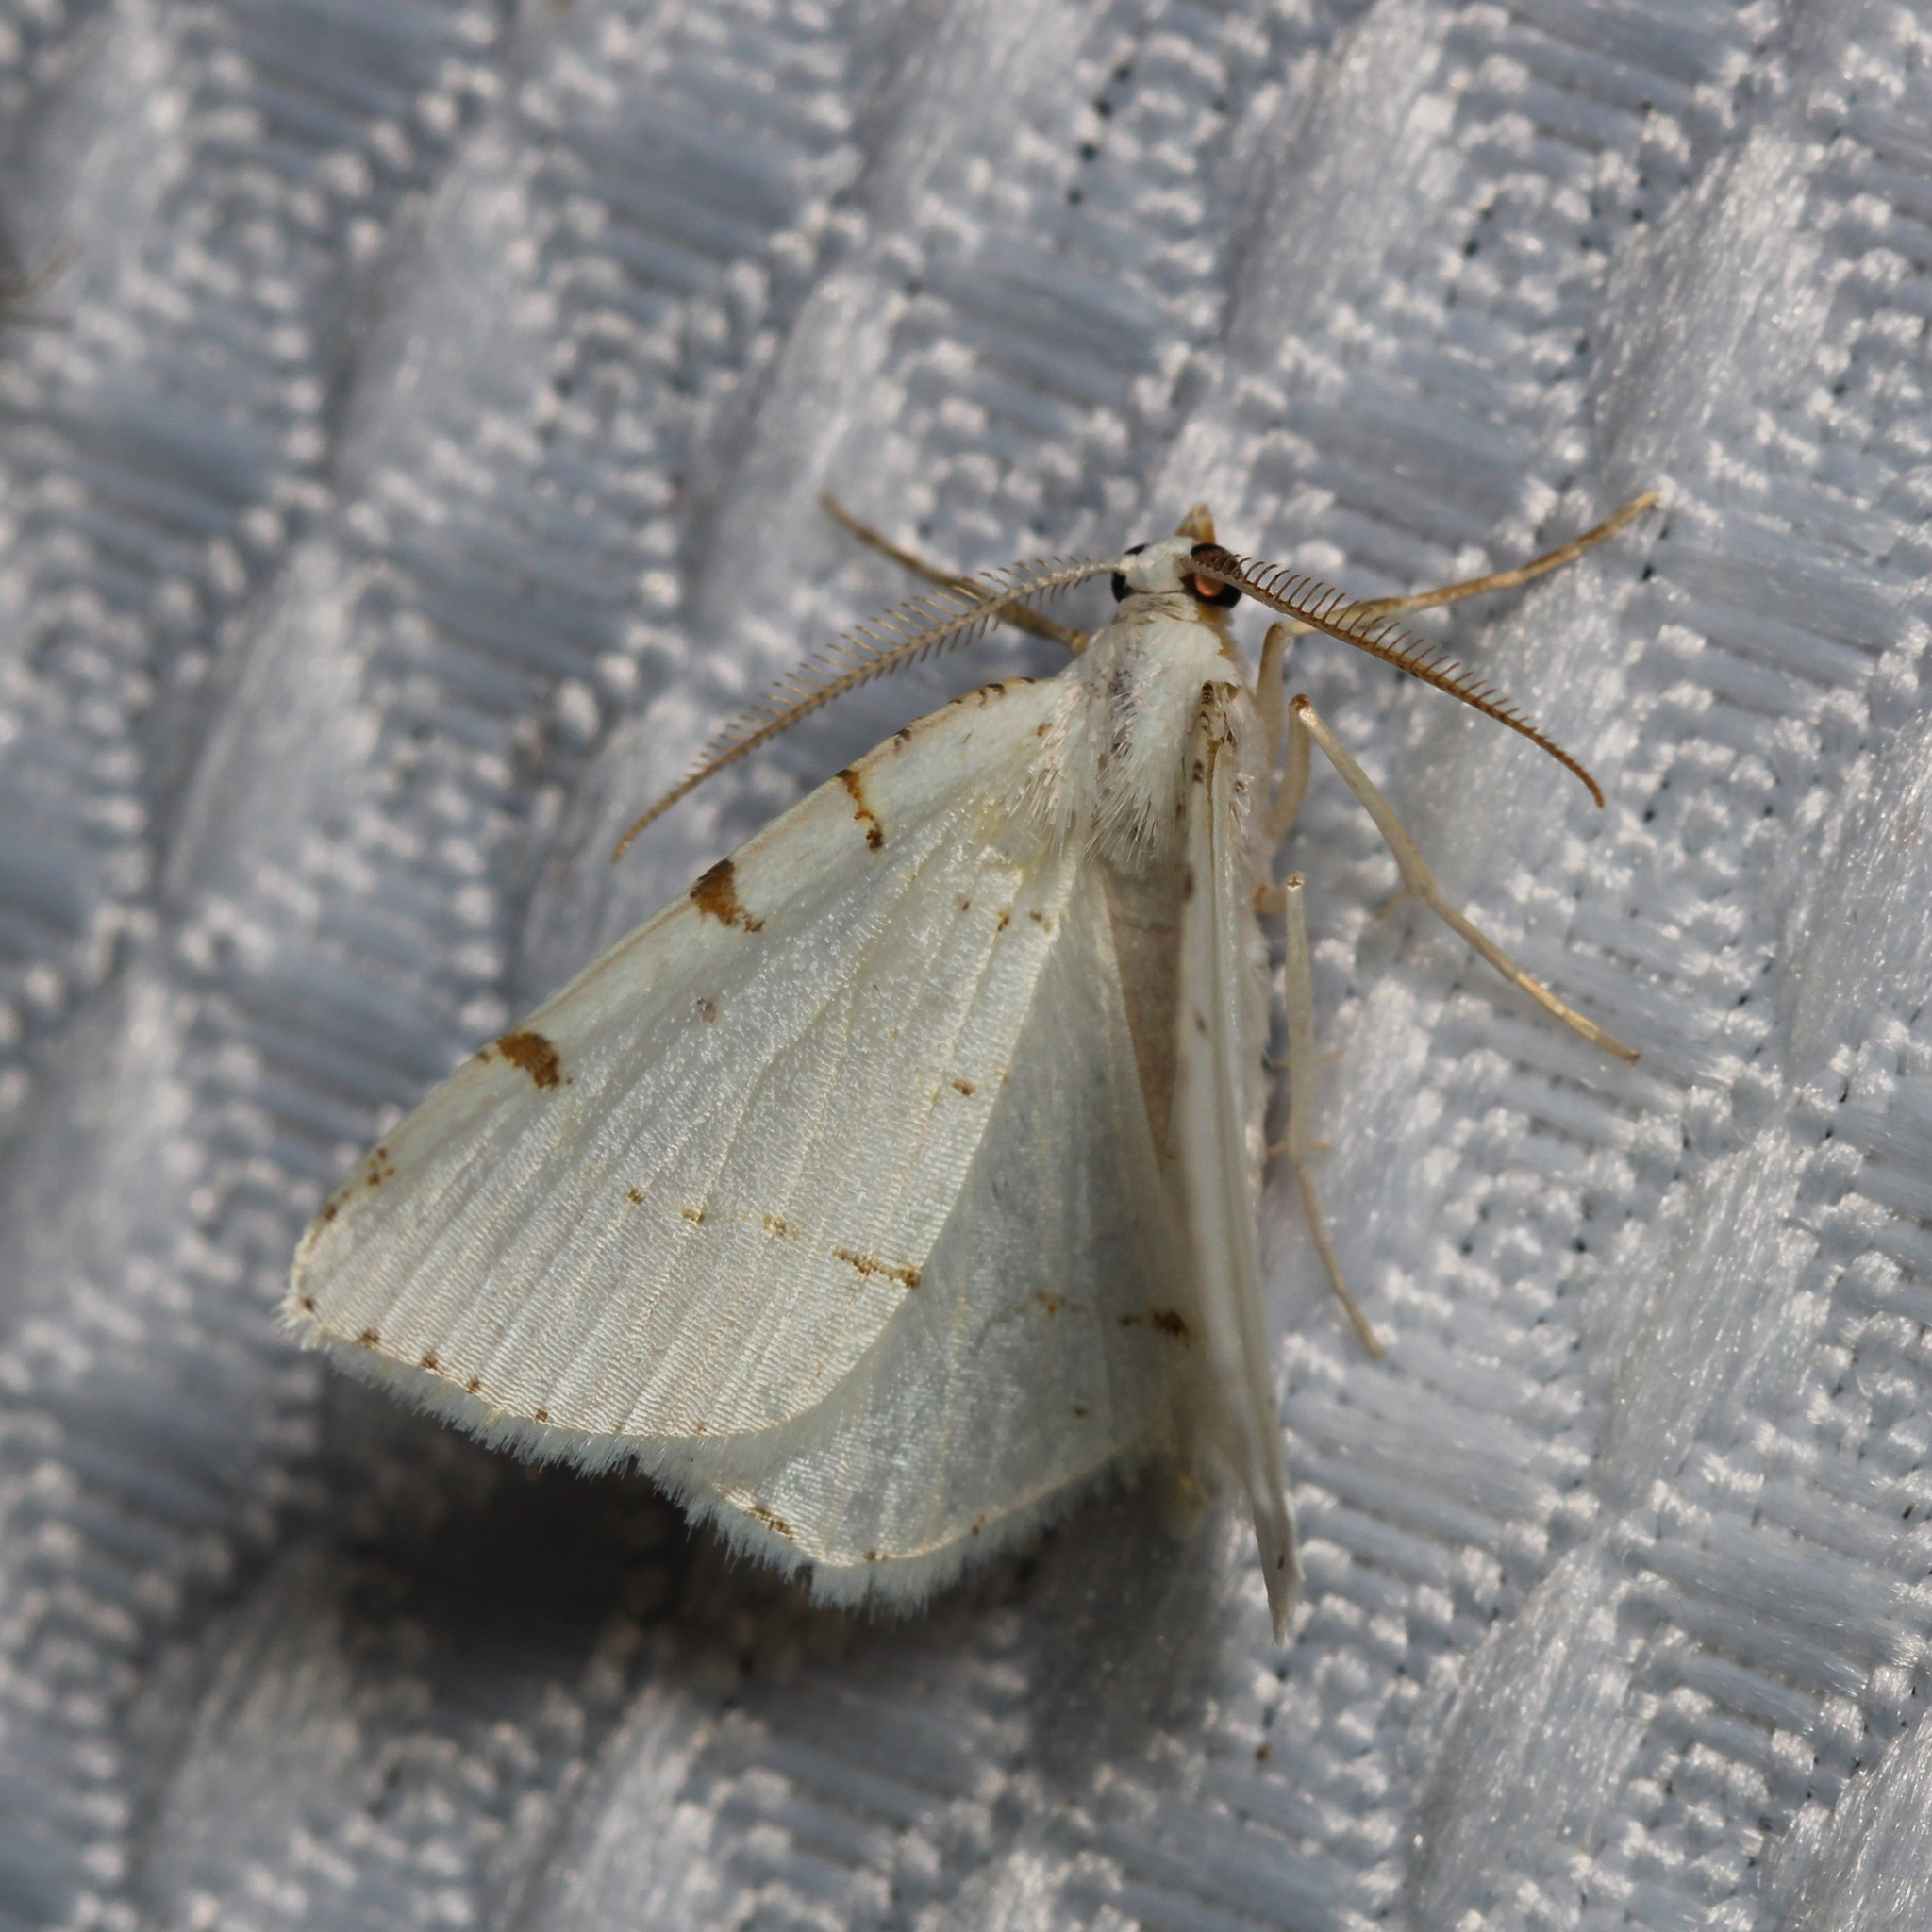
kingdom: Animalia
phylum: Arthropoda
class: Insecta
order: Lepidoptera
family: Geometridae
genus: Macaria
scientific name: Macaria pustularia
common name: Lesser maple spanworm moth
